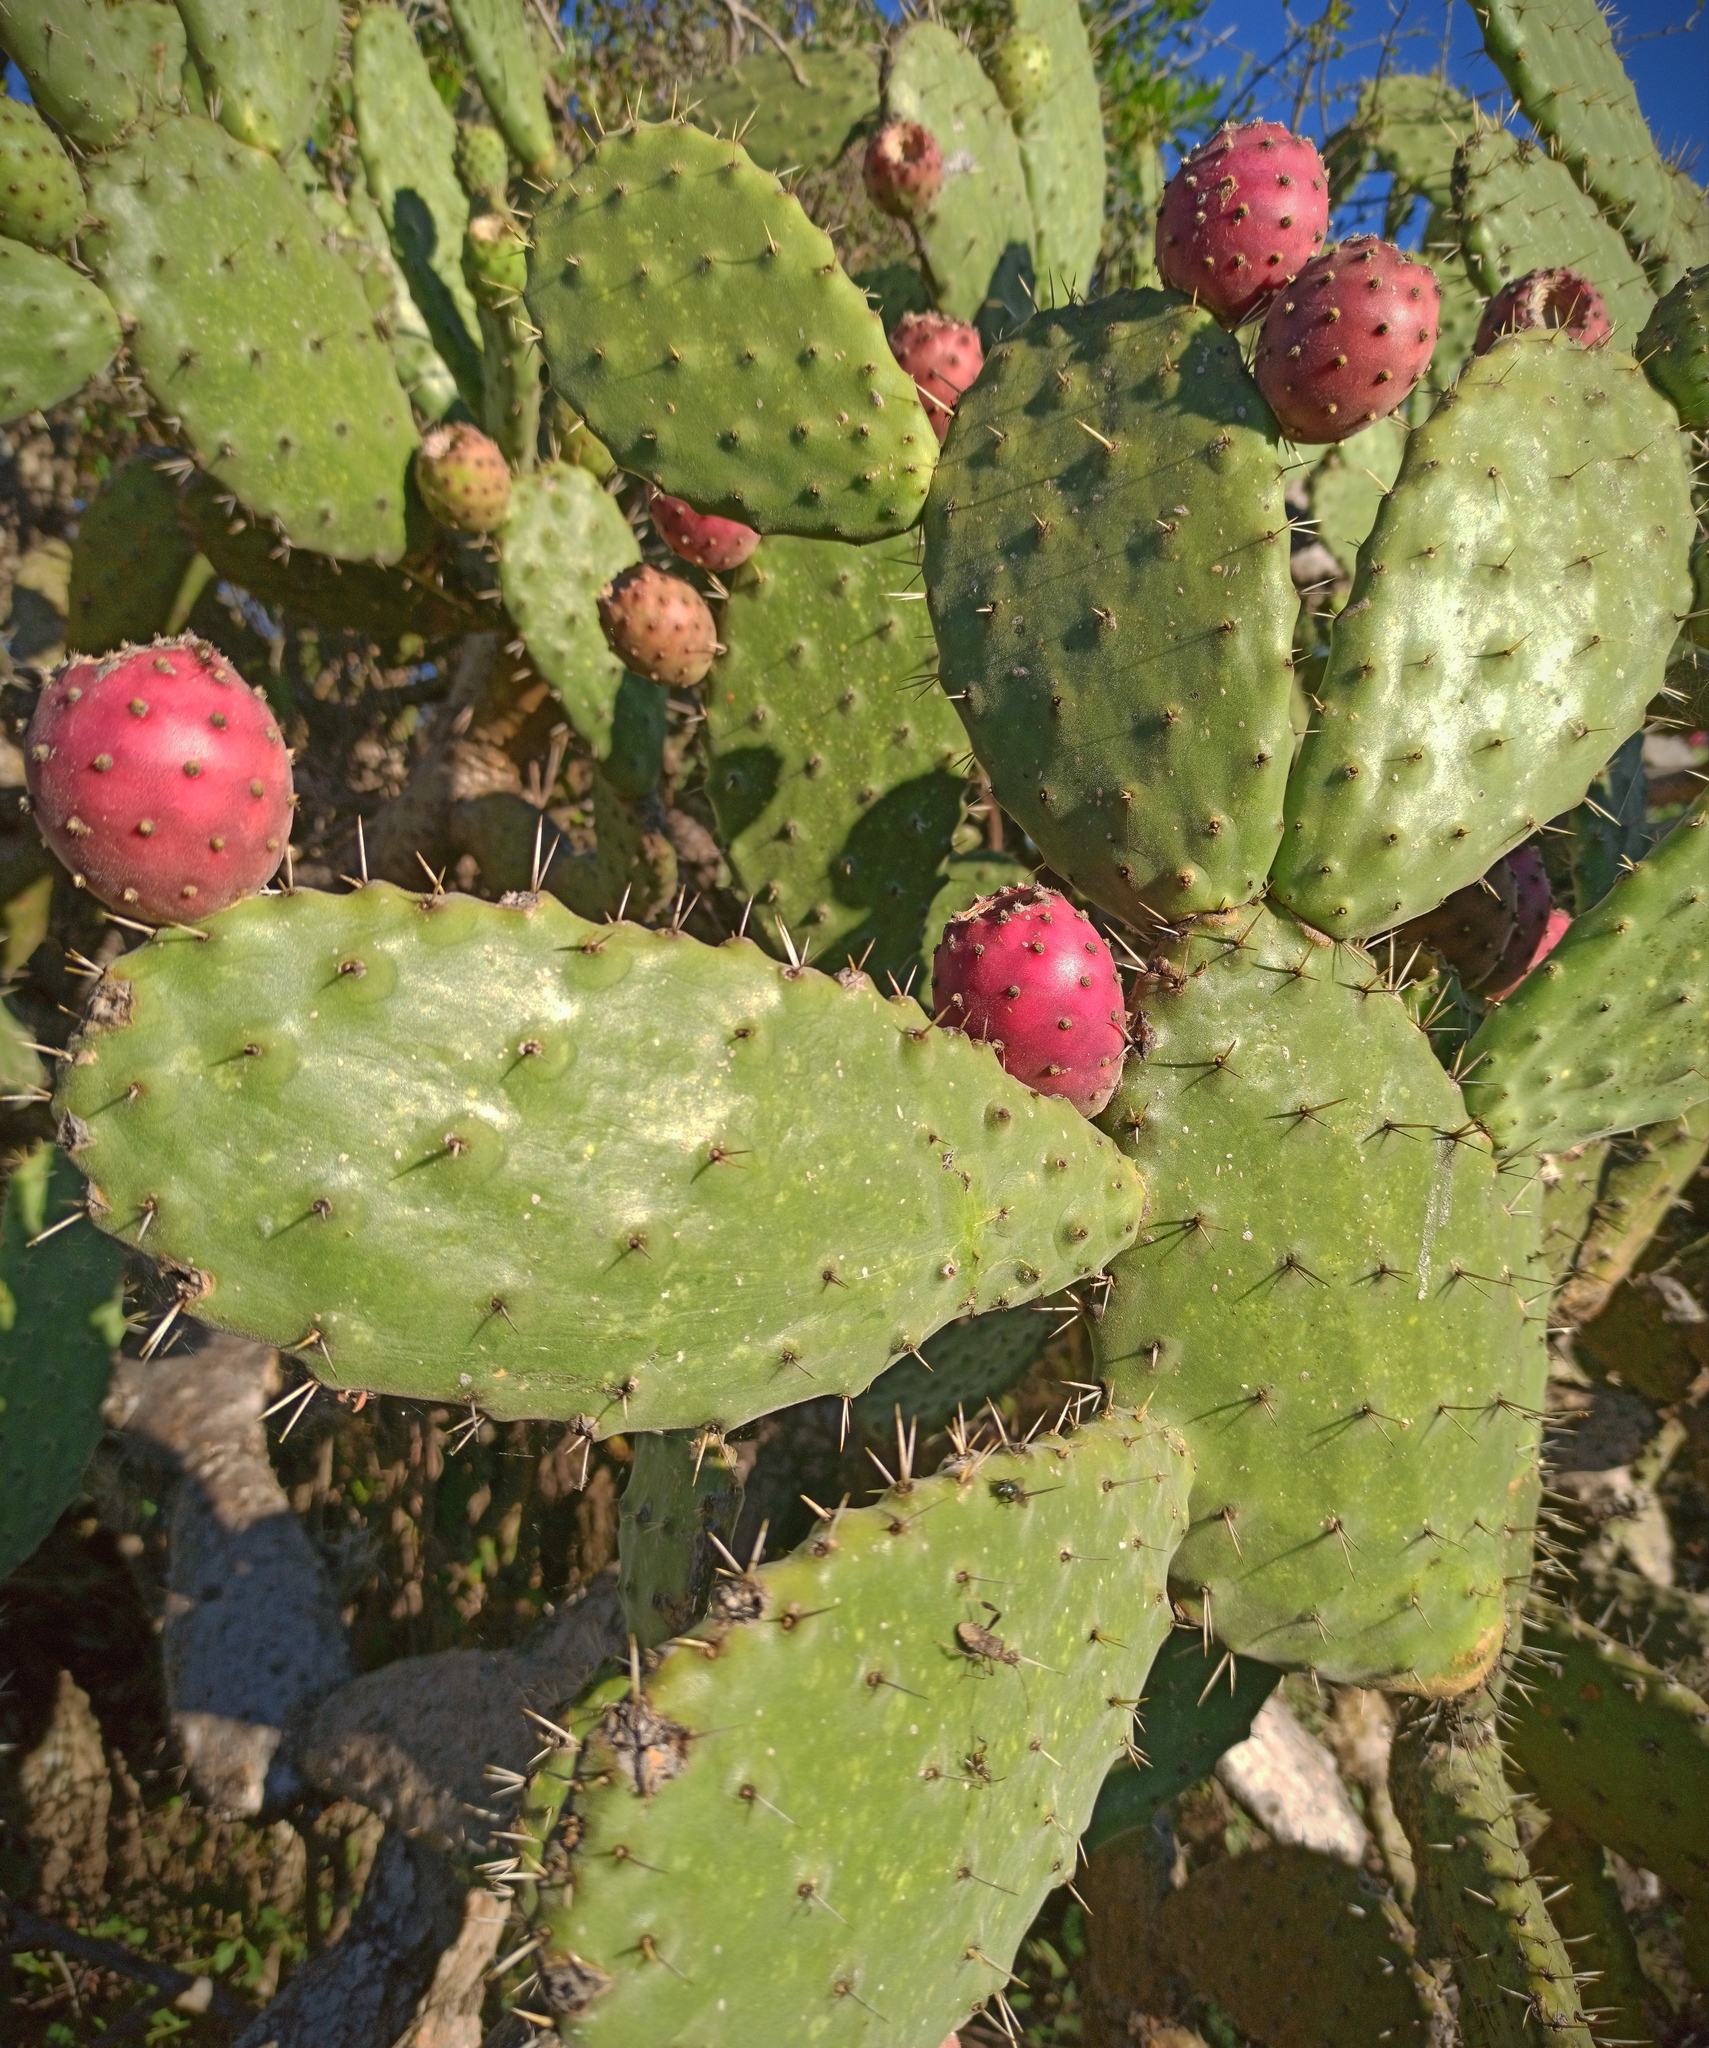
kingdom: Plantae
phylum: Tracheophyta
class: Magnoliopsida
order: Caryophyllales
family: Cactaceae
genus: Opuntia
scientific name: Opuntia tomentosa
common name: Woollyjoint pricklypear
